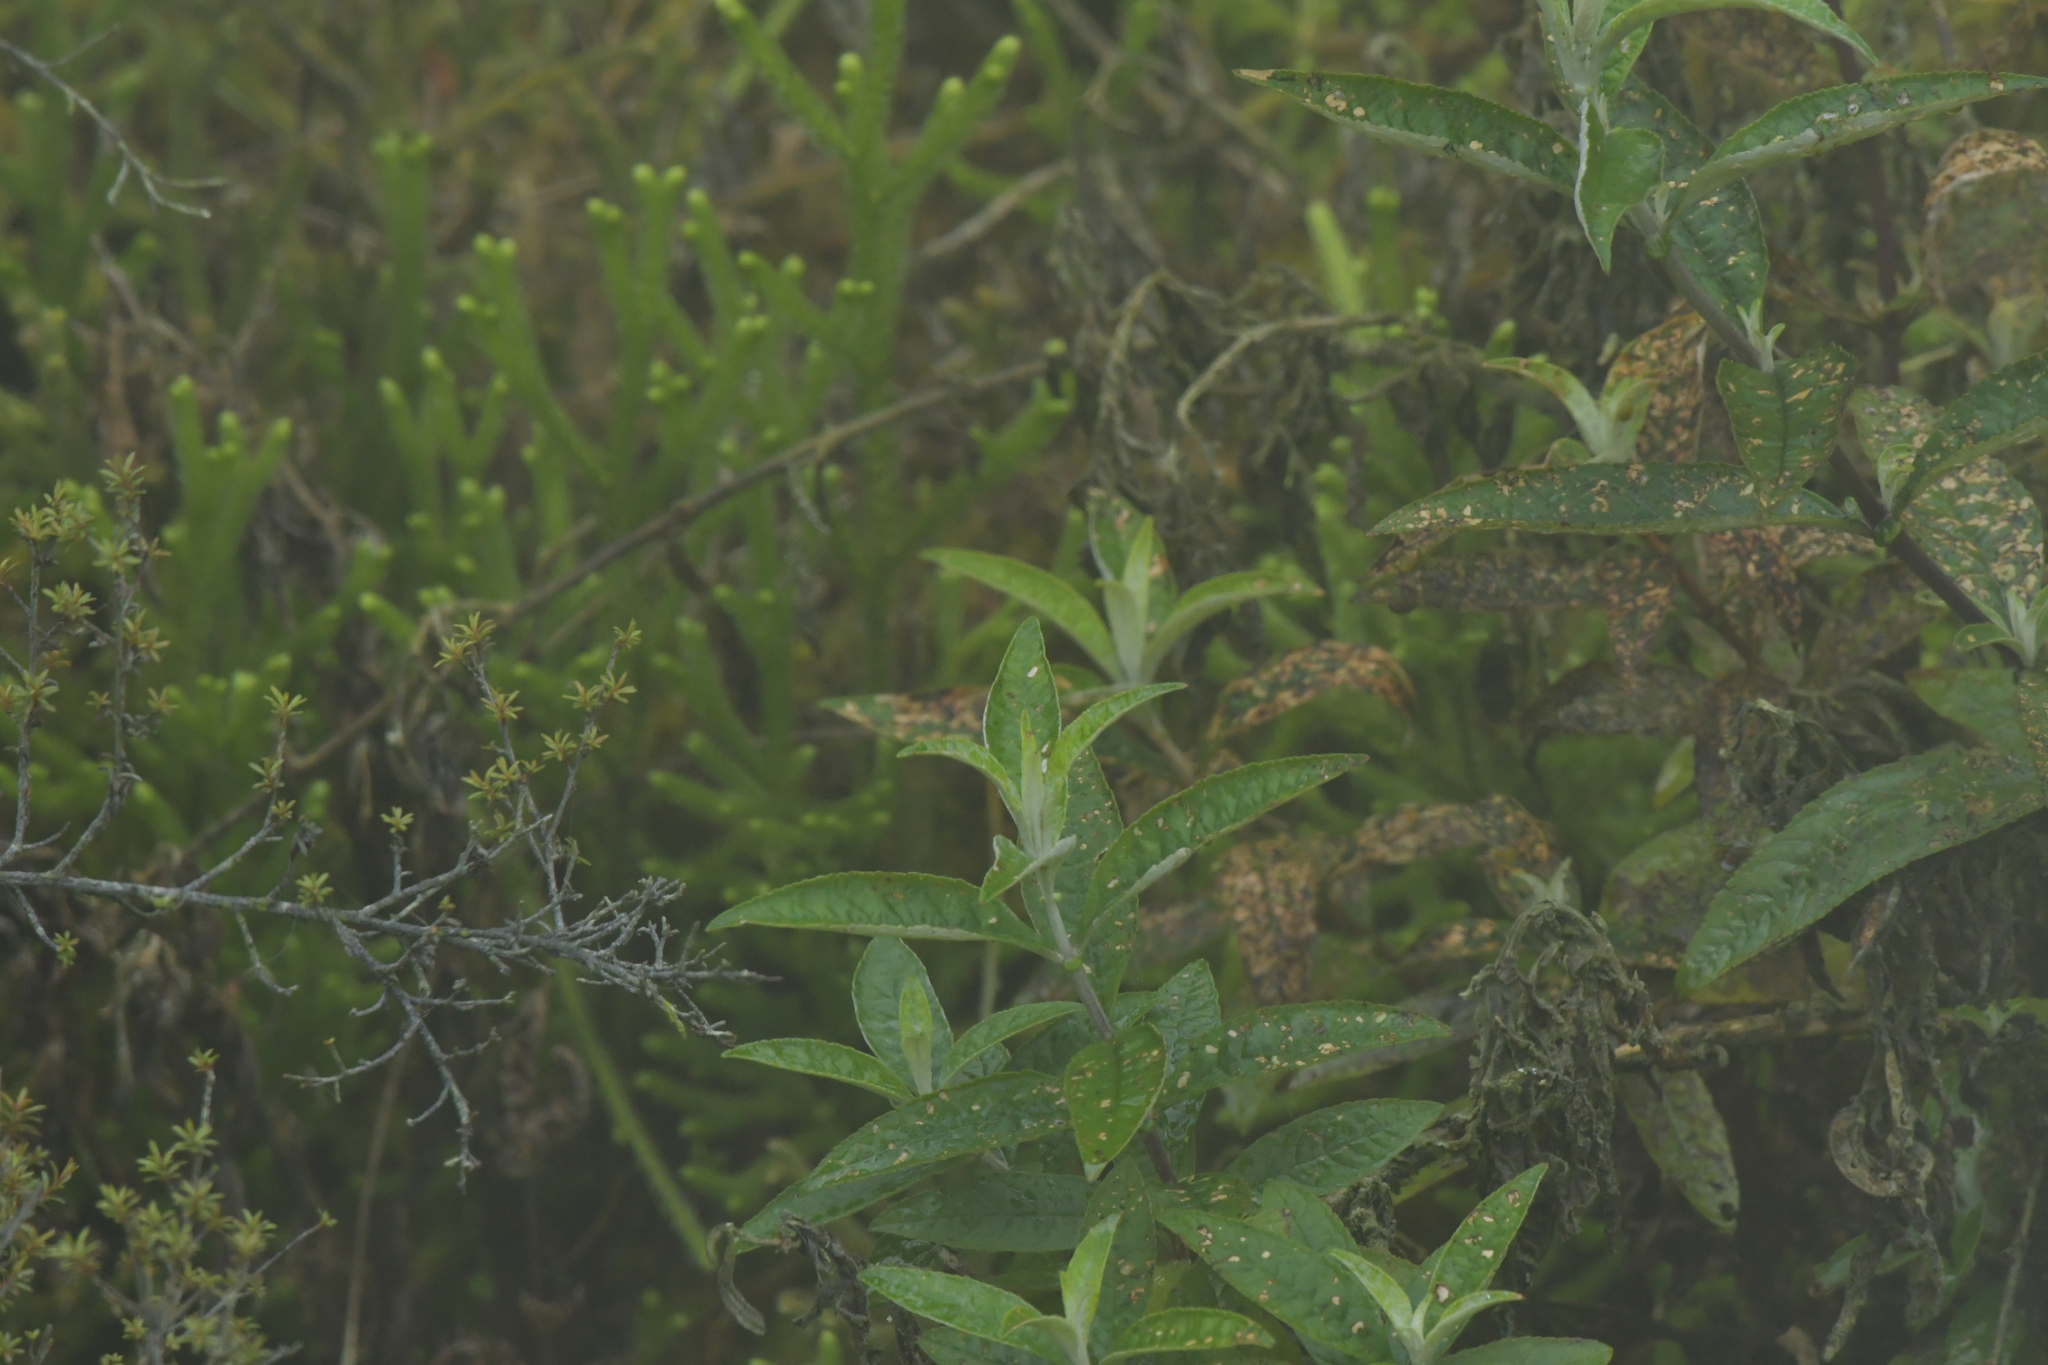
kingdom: Plantae
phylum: Tracheophyta
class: Magnoliopsida
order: Lamiales
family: Scrophulariaceae
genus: Buddleja
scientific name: Buddleja davidii
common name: Butterfly-bush
